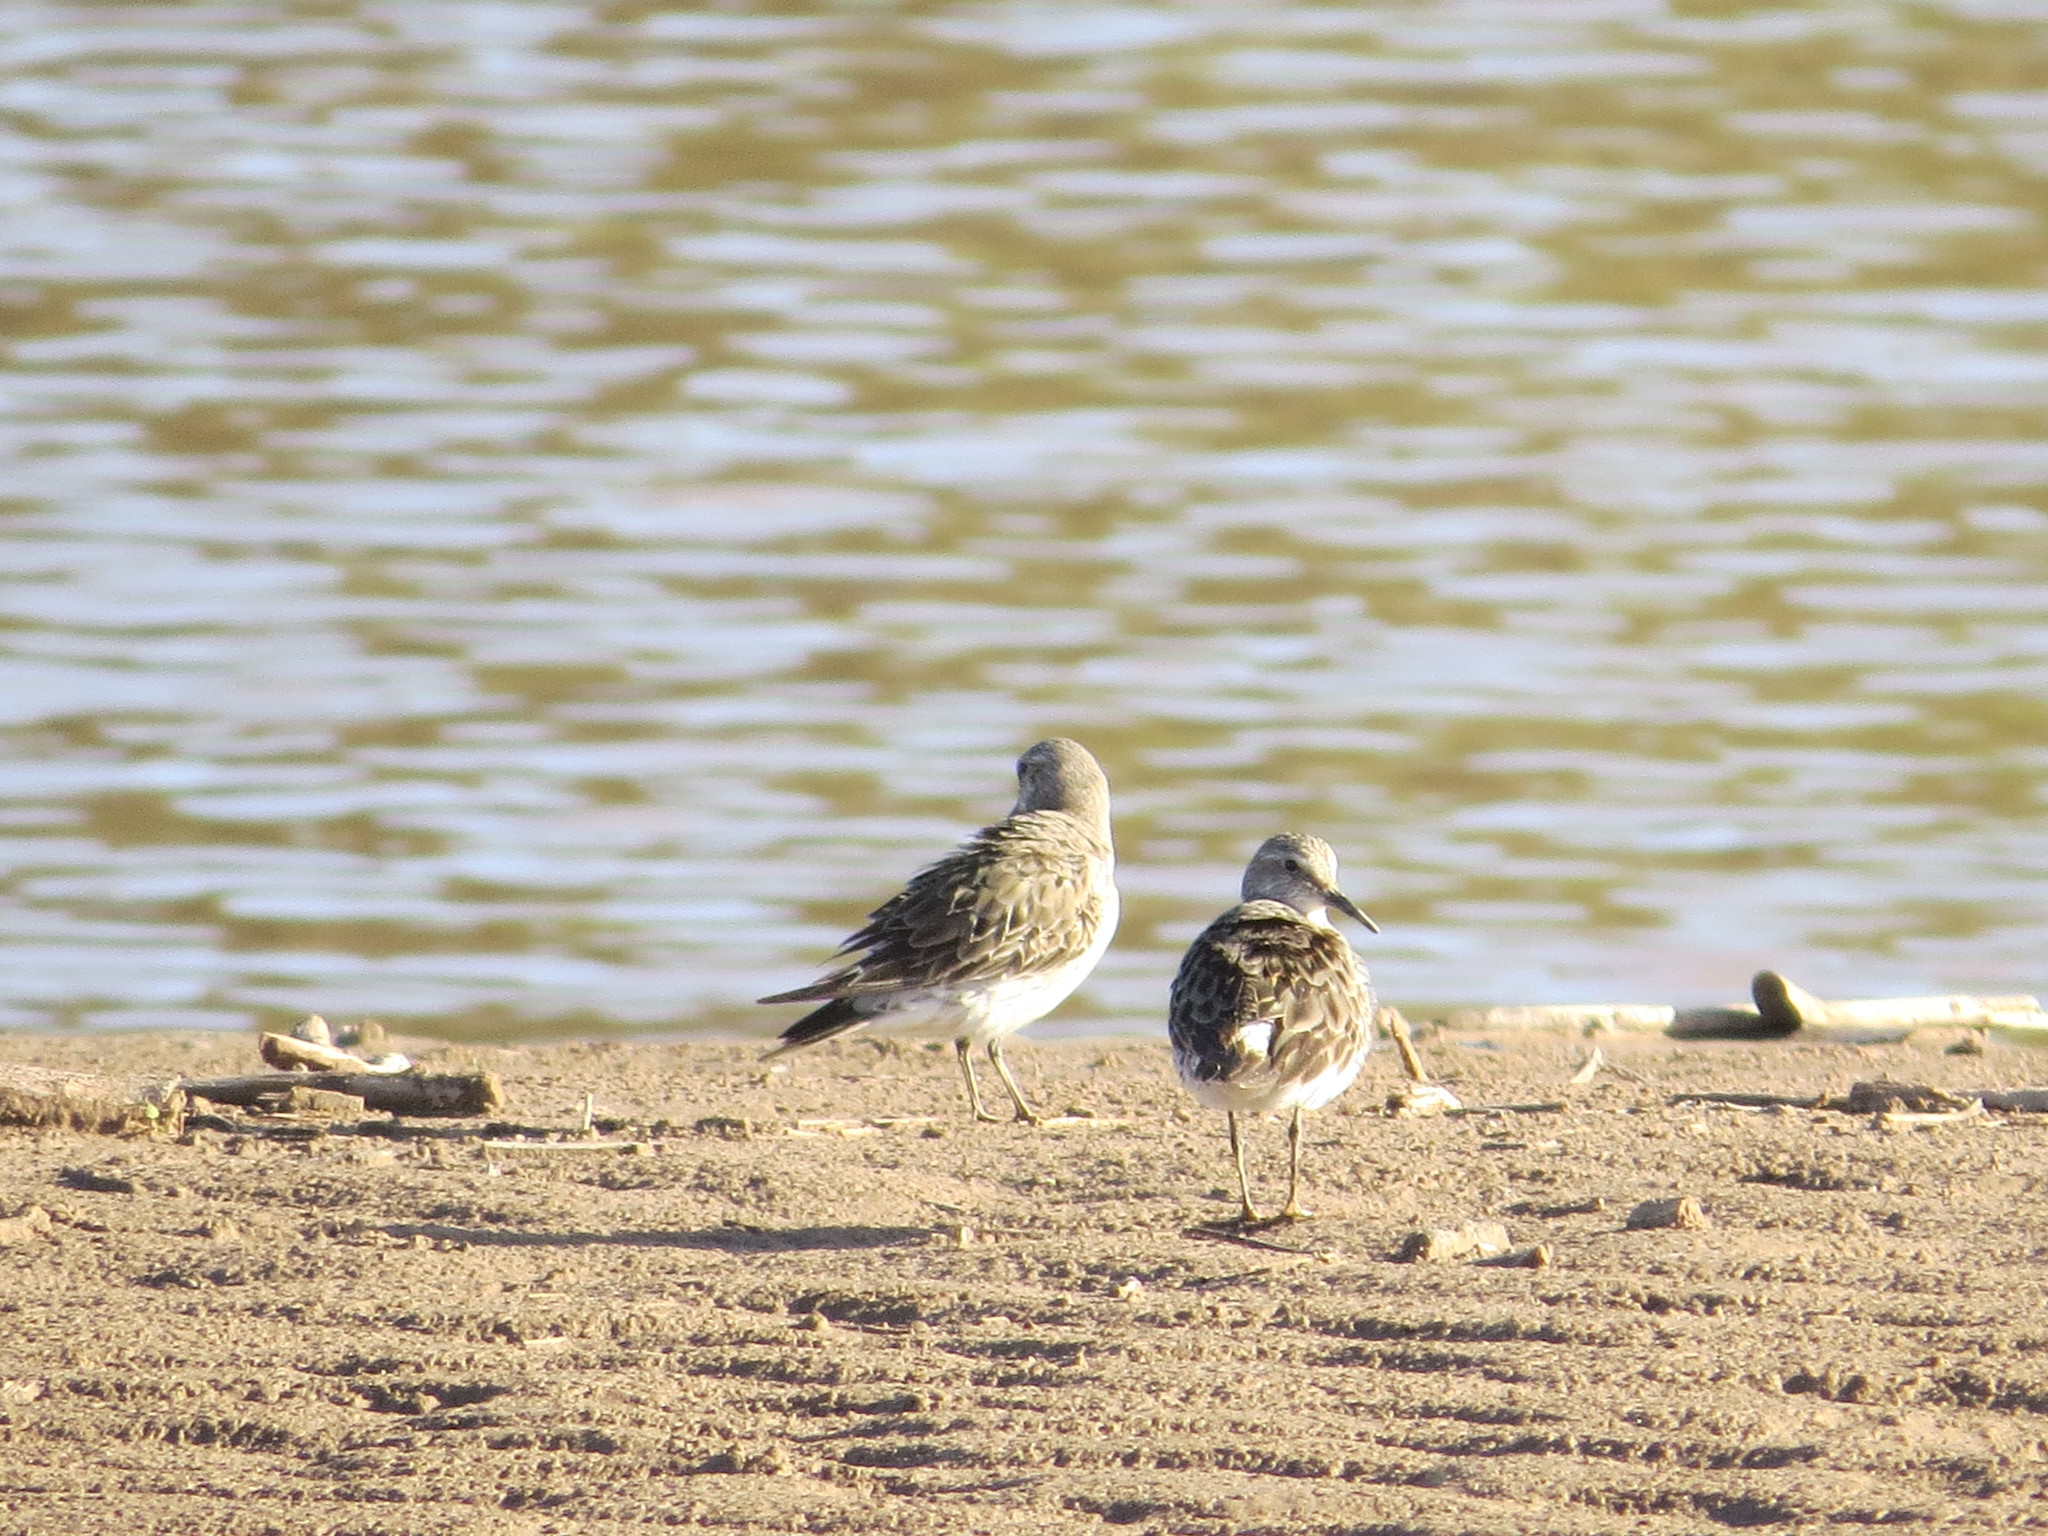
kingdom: Animalia
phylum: Chordata
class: Aves
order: Charadriiformes
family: Scolopacidae
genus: Calidris
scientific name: Calidris fuscicollis
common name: White-rumped sandpiper
